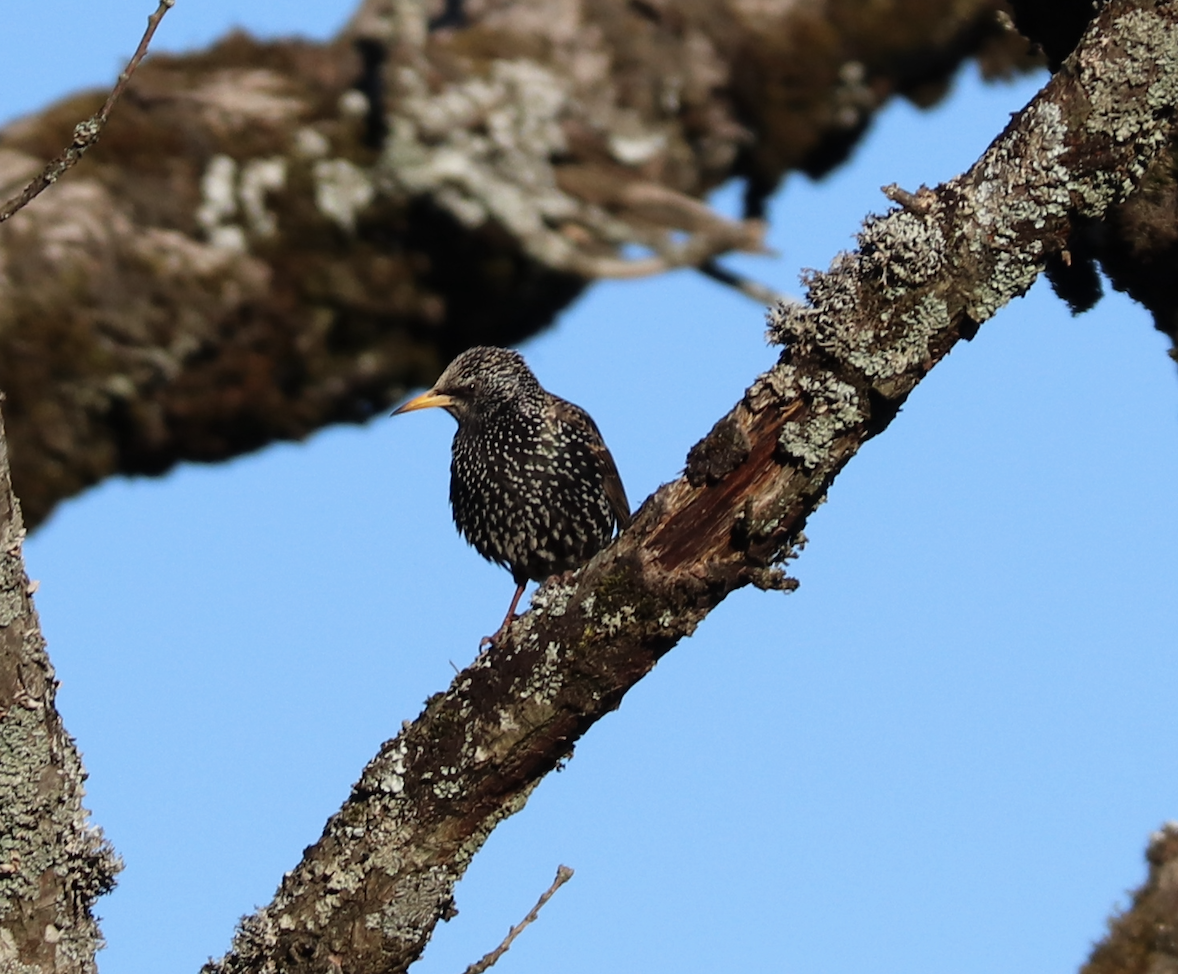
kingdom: Animalia
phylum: Chordata
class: Aves
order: Passeriformes
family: Sturnidae
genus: Sturnus
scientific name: Sturnus vulgaris
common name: Common starling
